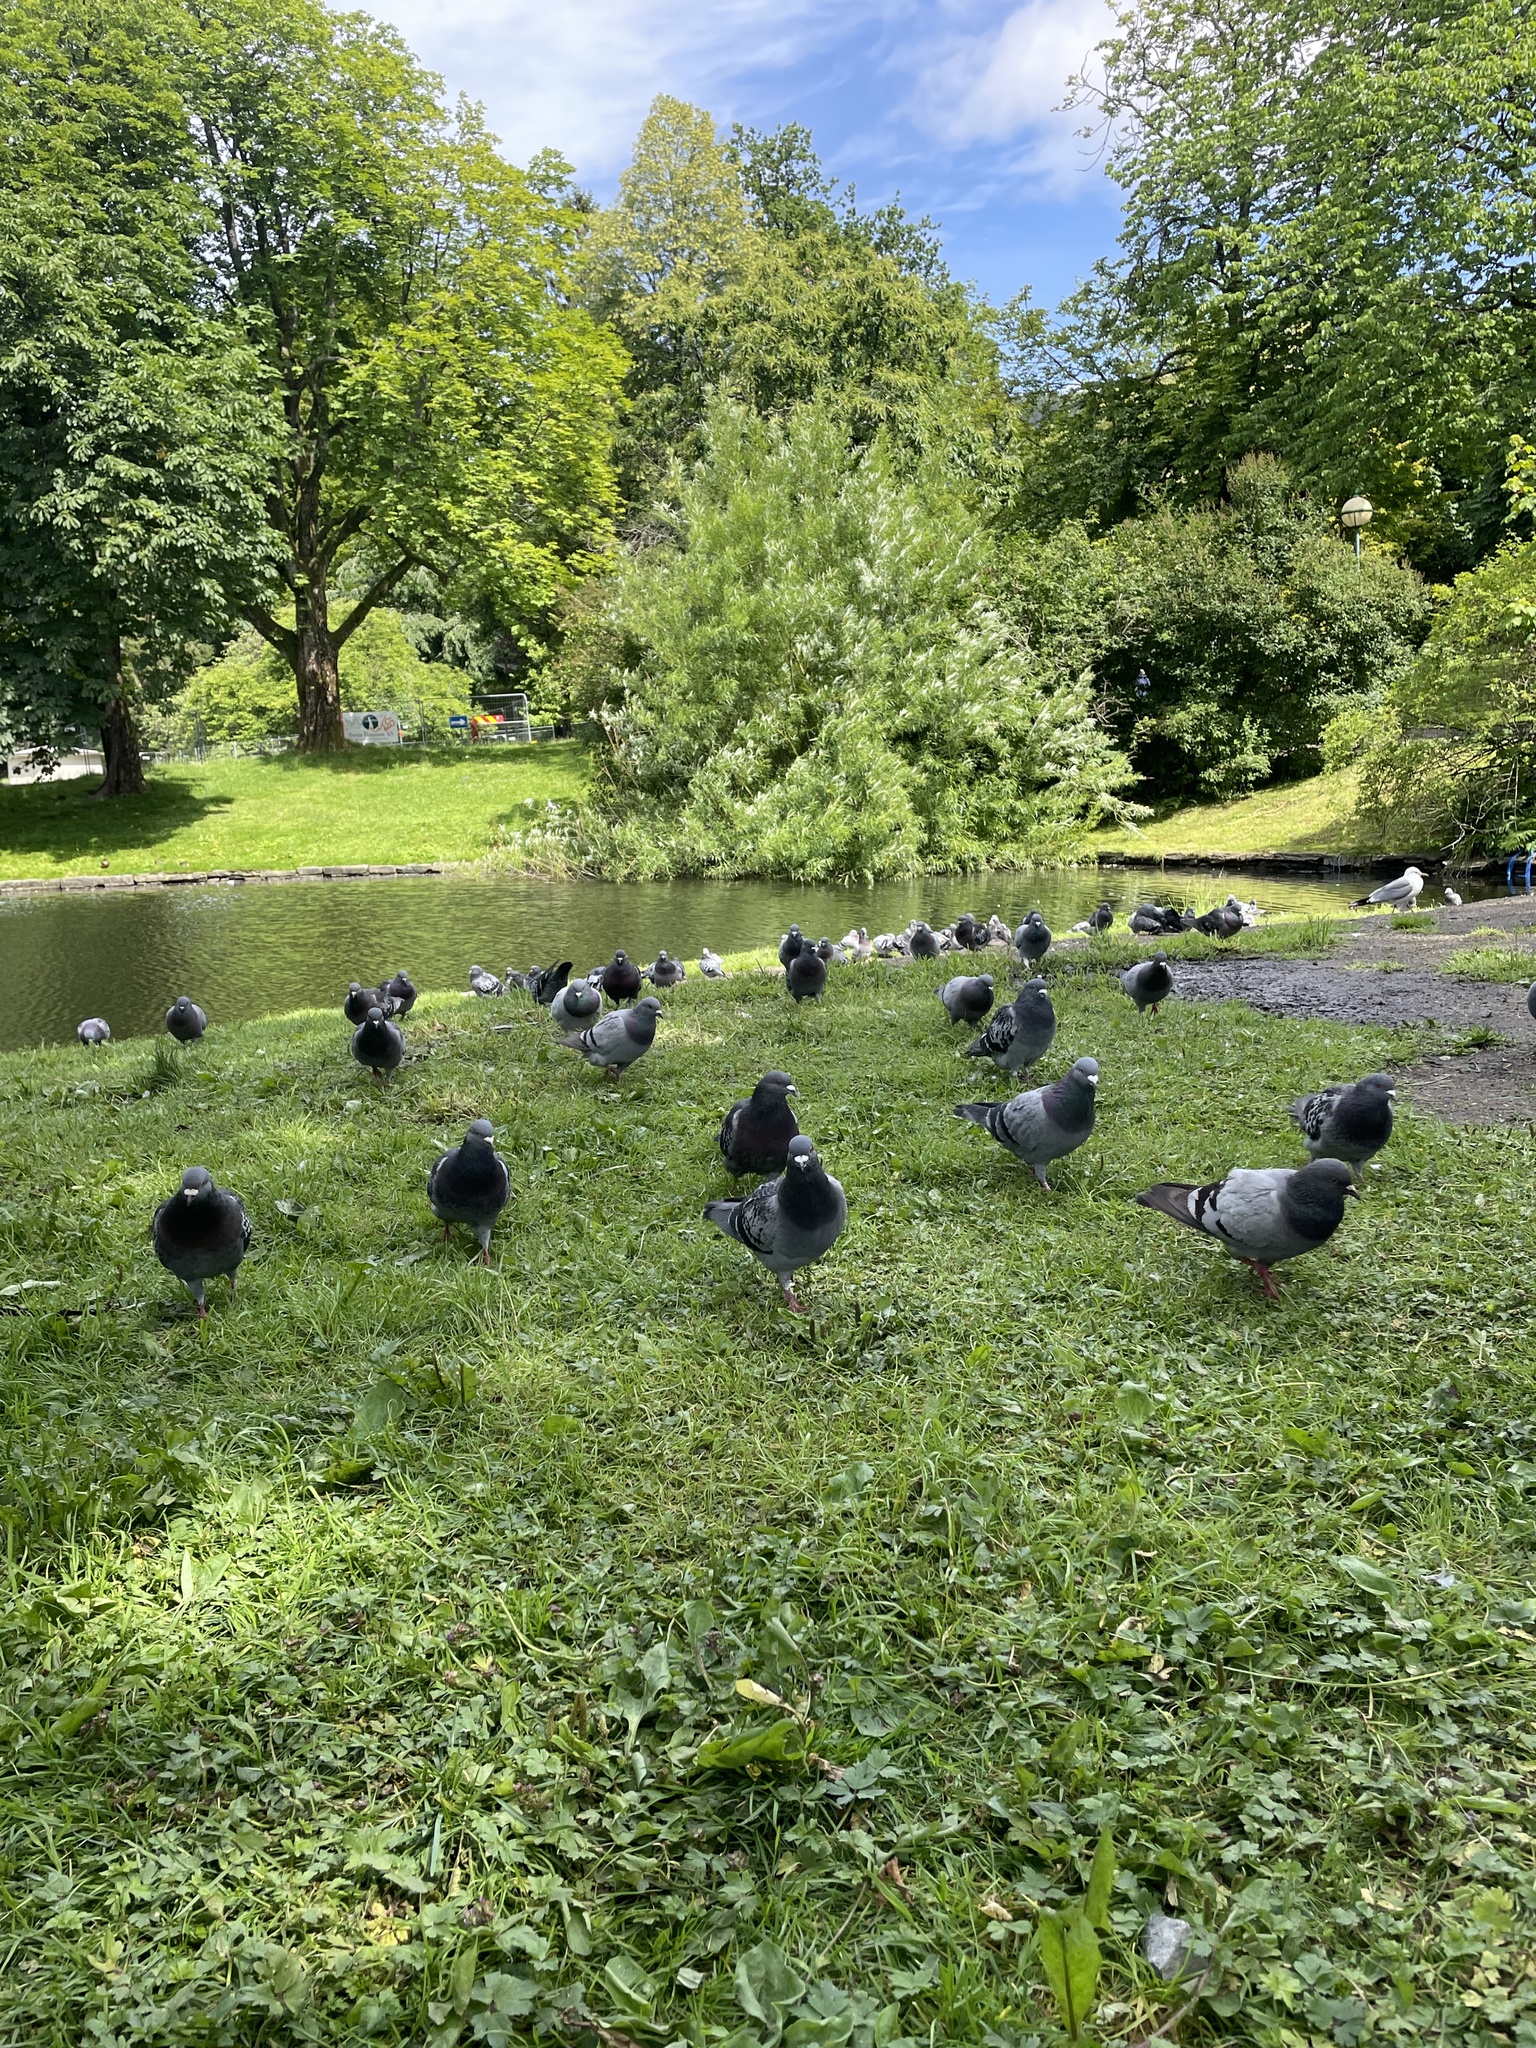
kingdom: Animalia
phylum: Chordata
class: Aves
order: Columbiformes
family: Columbidae
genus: Columba
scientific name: Columba livia
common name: Rock pigeon
